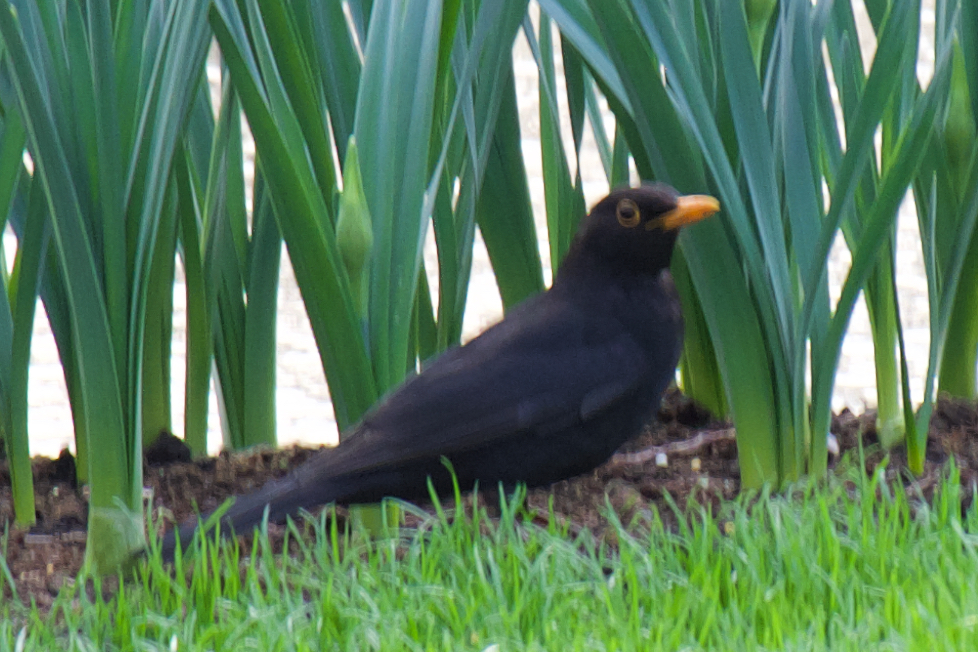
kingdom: Animalia
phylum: Chordata
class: Aves
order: Passeriformes
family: Turdidae
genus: Turdus
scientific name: Turdus merula
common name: Common blackbird
